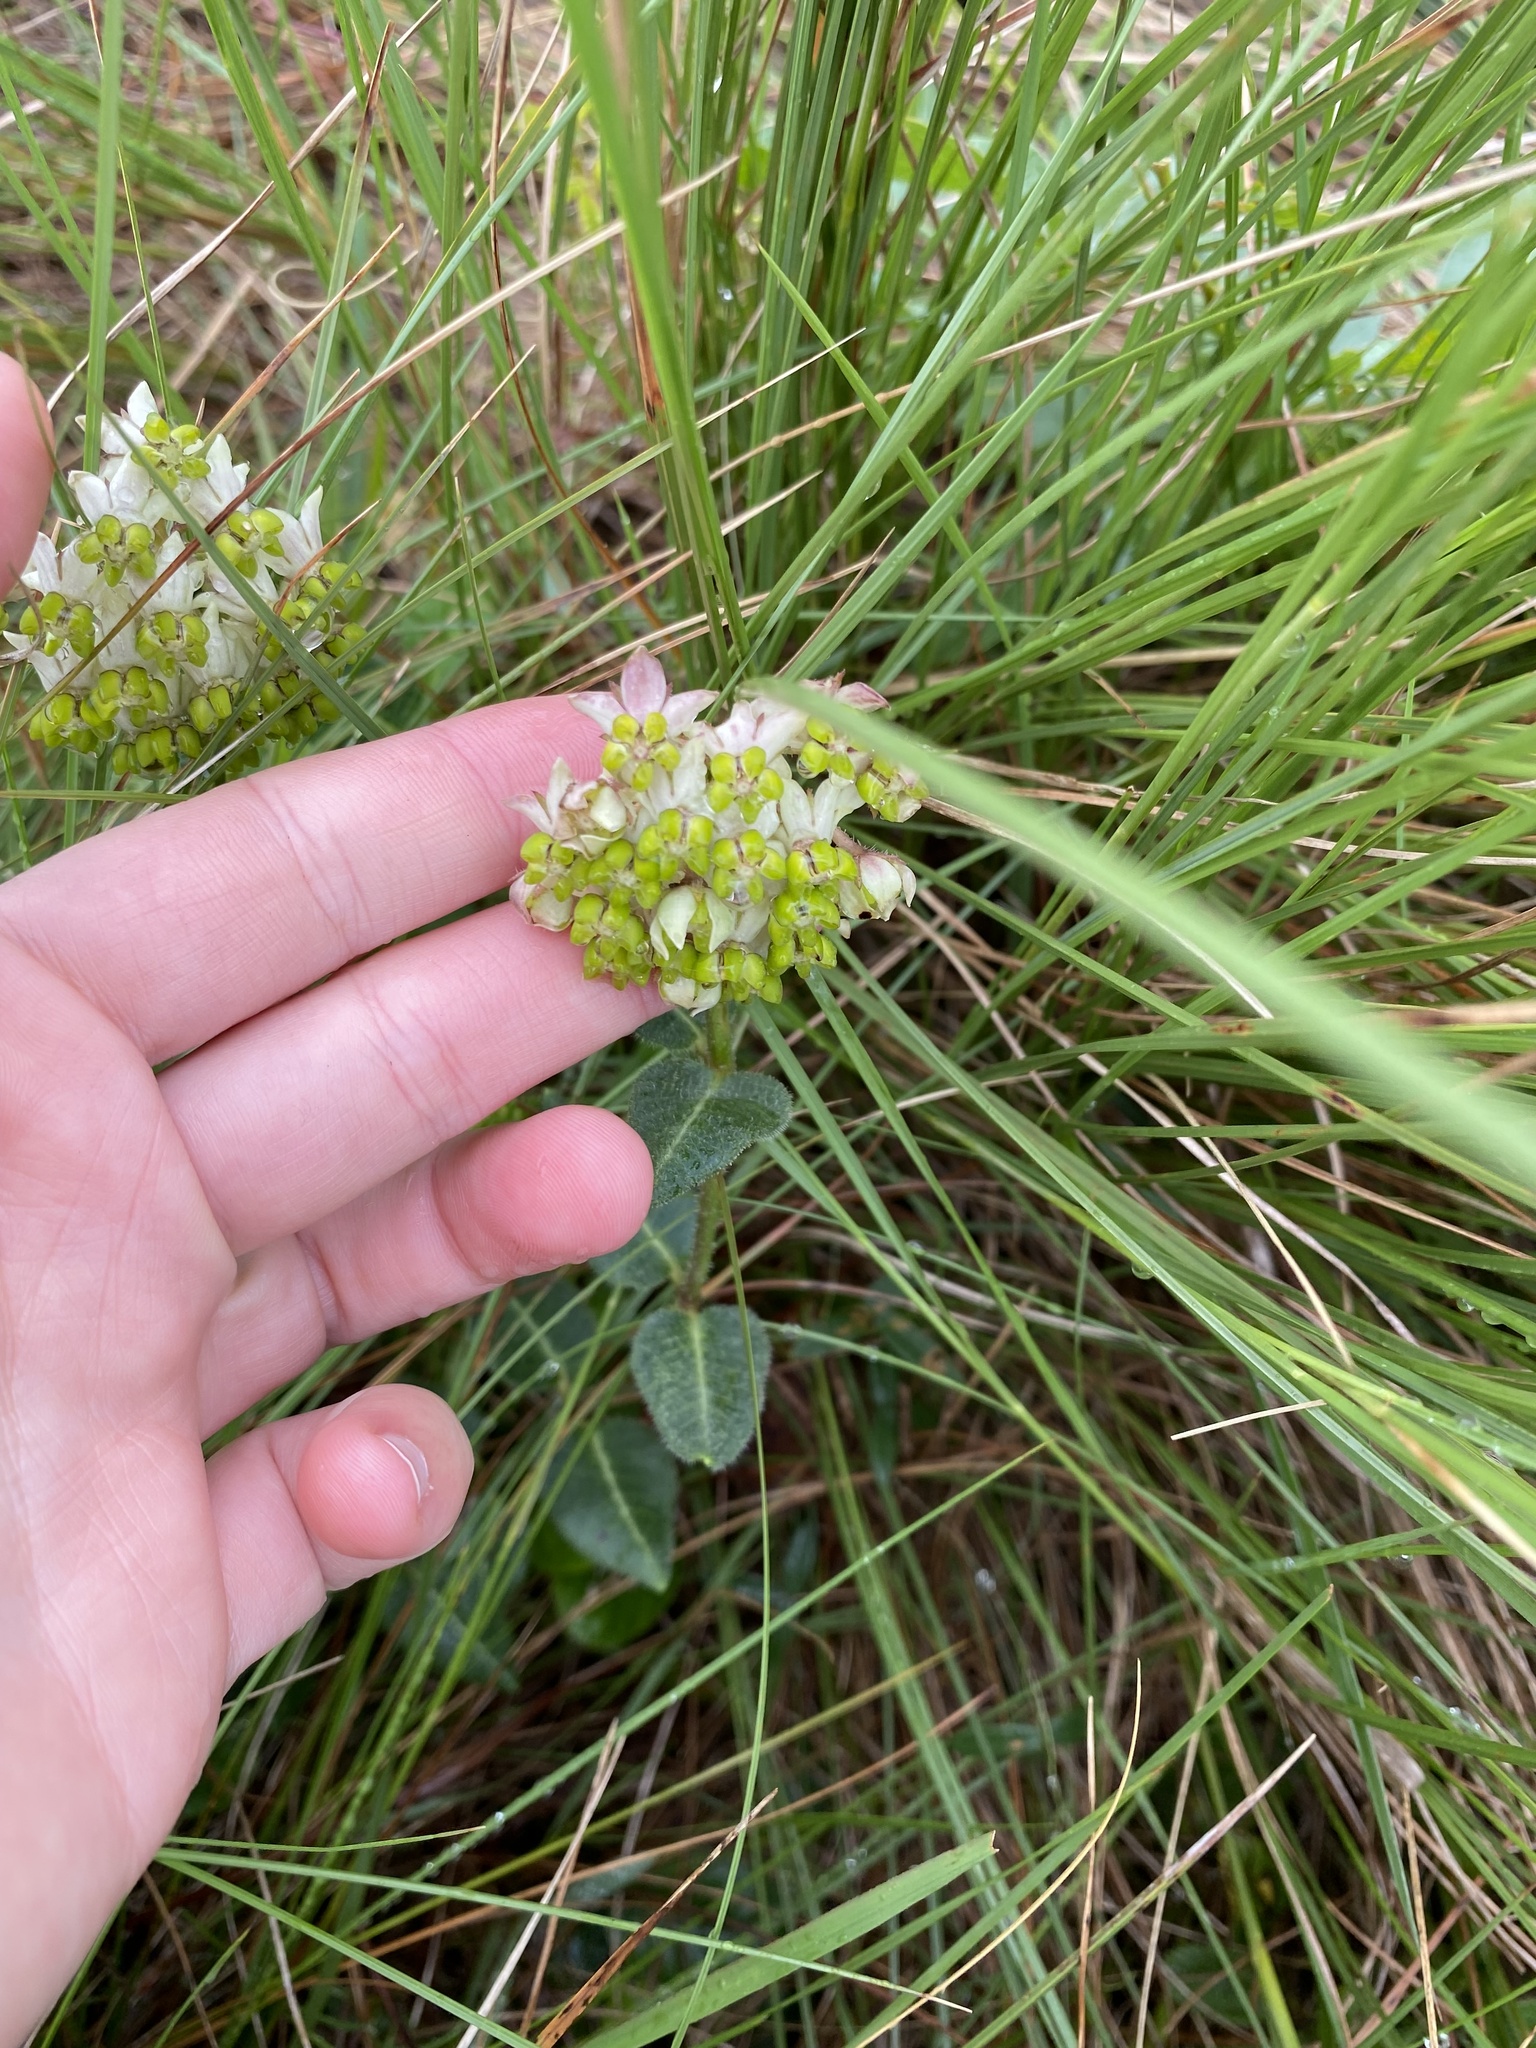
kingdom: Plantae
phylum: Tracheophyta
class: Magnoliopsida
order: Gentianales
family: Apocynaceae
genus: Asclepias
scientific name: Asclepias albens
